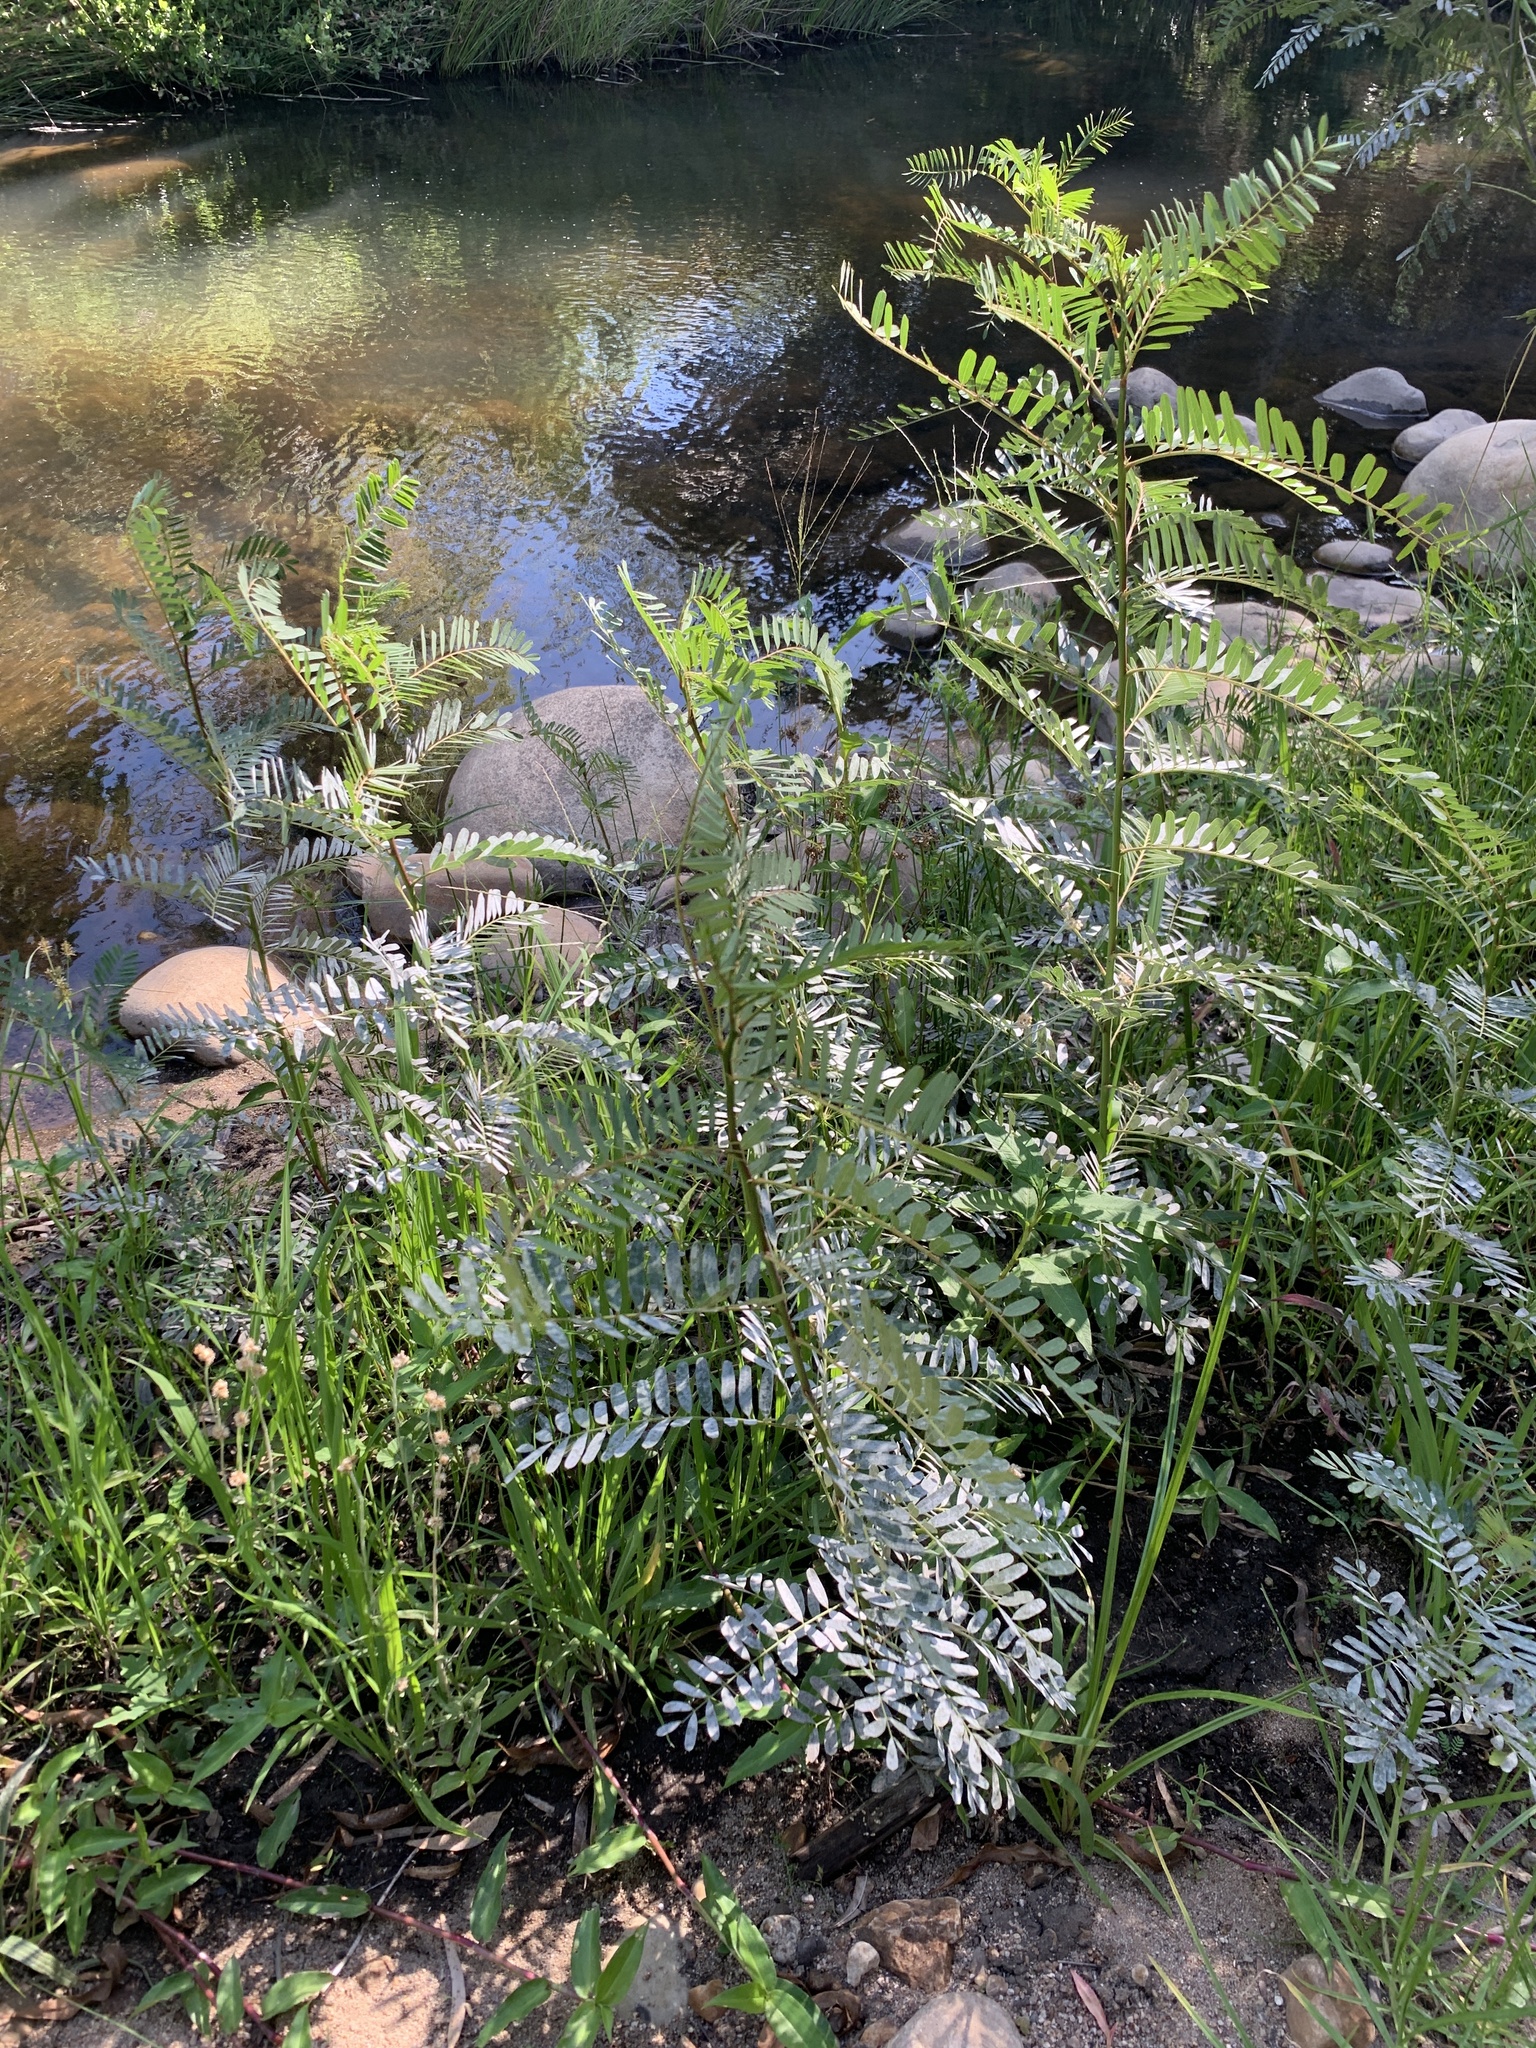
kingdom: Plantae
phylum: Tracheophyta
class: Magnoliopsida
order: Fabales
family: Fabaceae
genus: Sesbania
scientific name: Sesbania punicea
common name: Rattlebox
